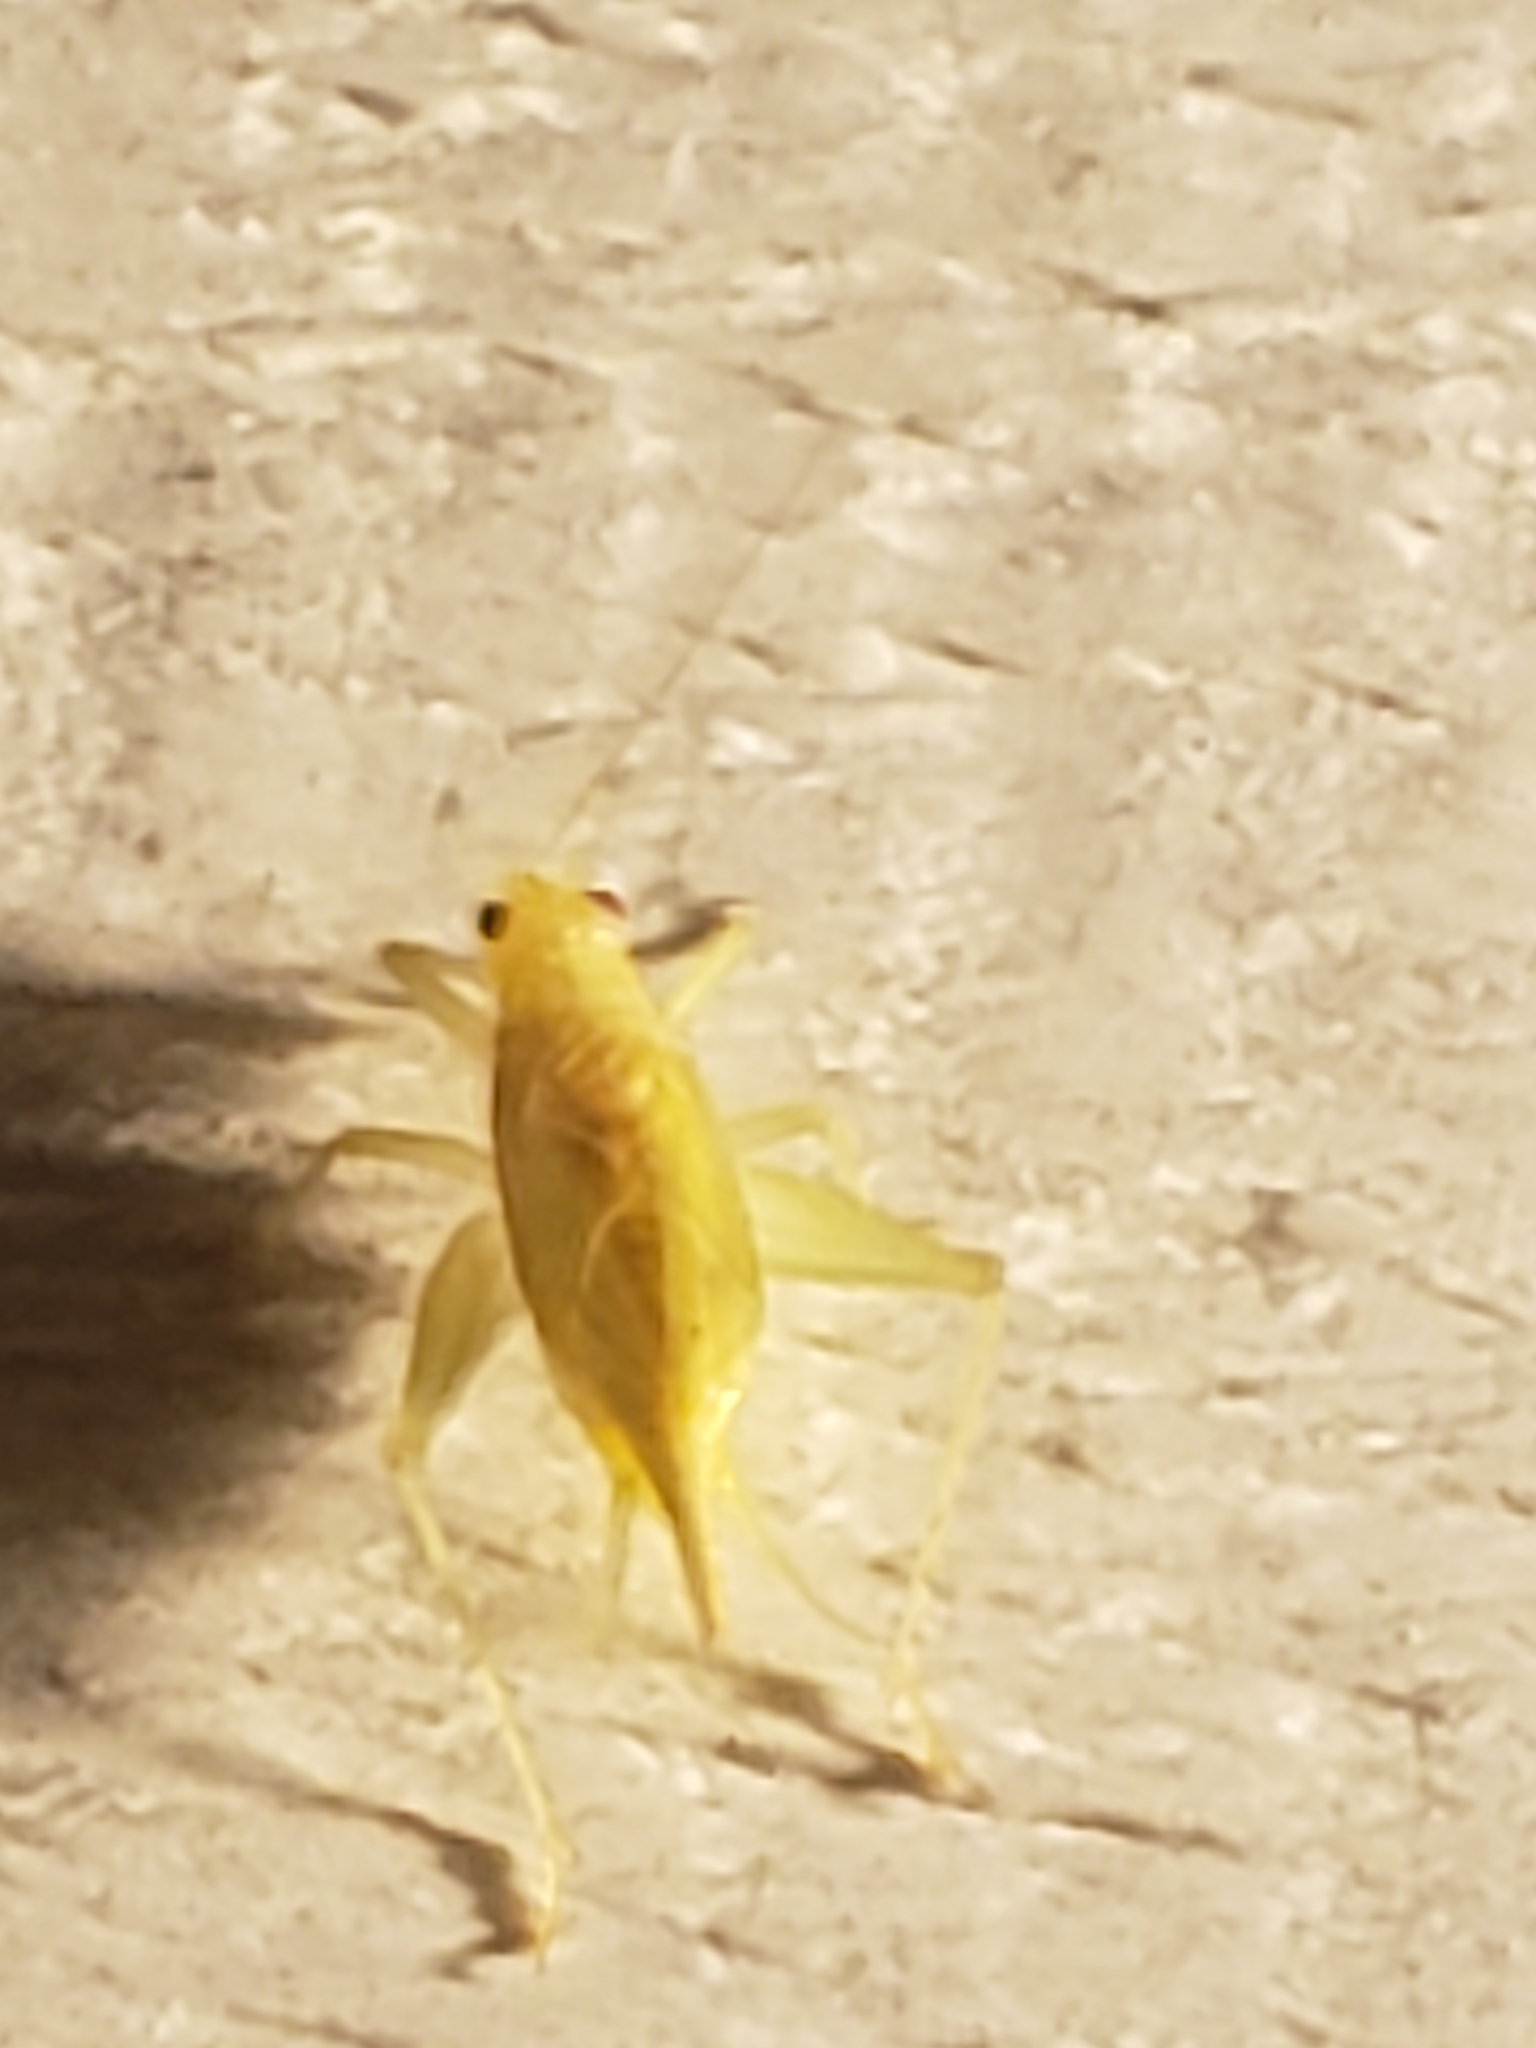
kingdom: Animalia
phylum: Arthropoda
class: Insecta
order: Orthoptera
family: Trigonidiidae
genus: Cyrtoxipha
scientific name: Cyrtoxipha columbiana
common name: Columbian trig
